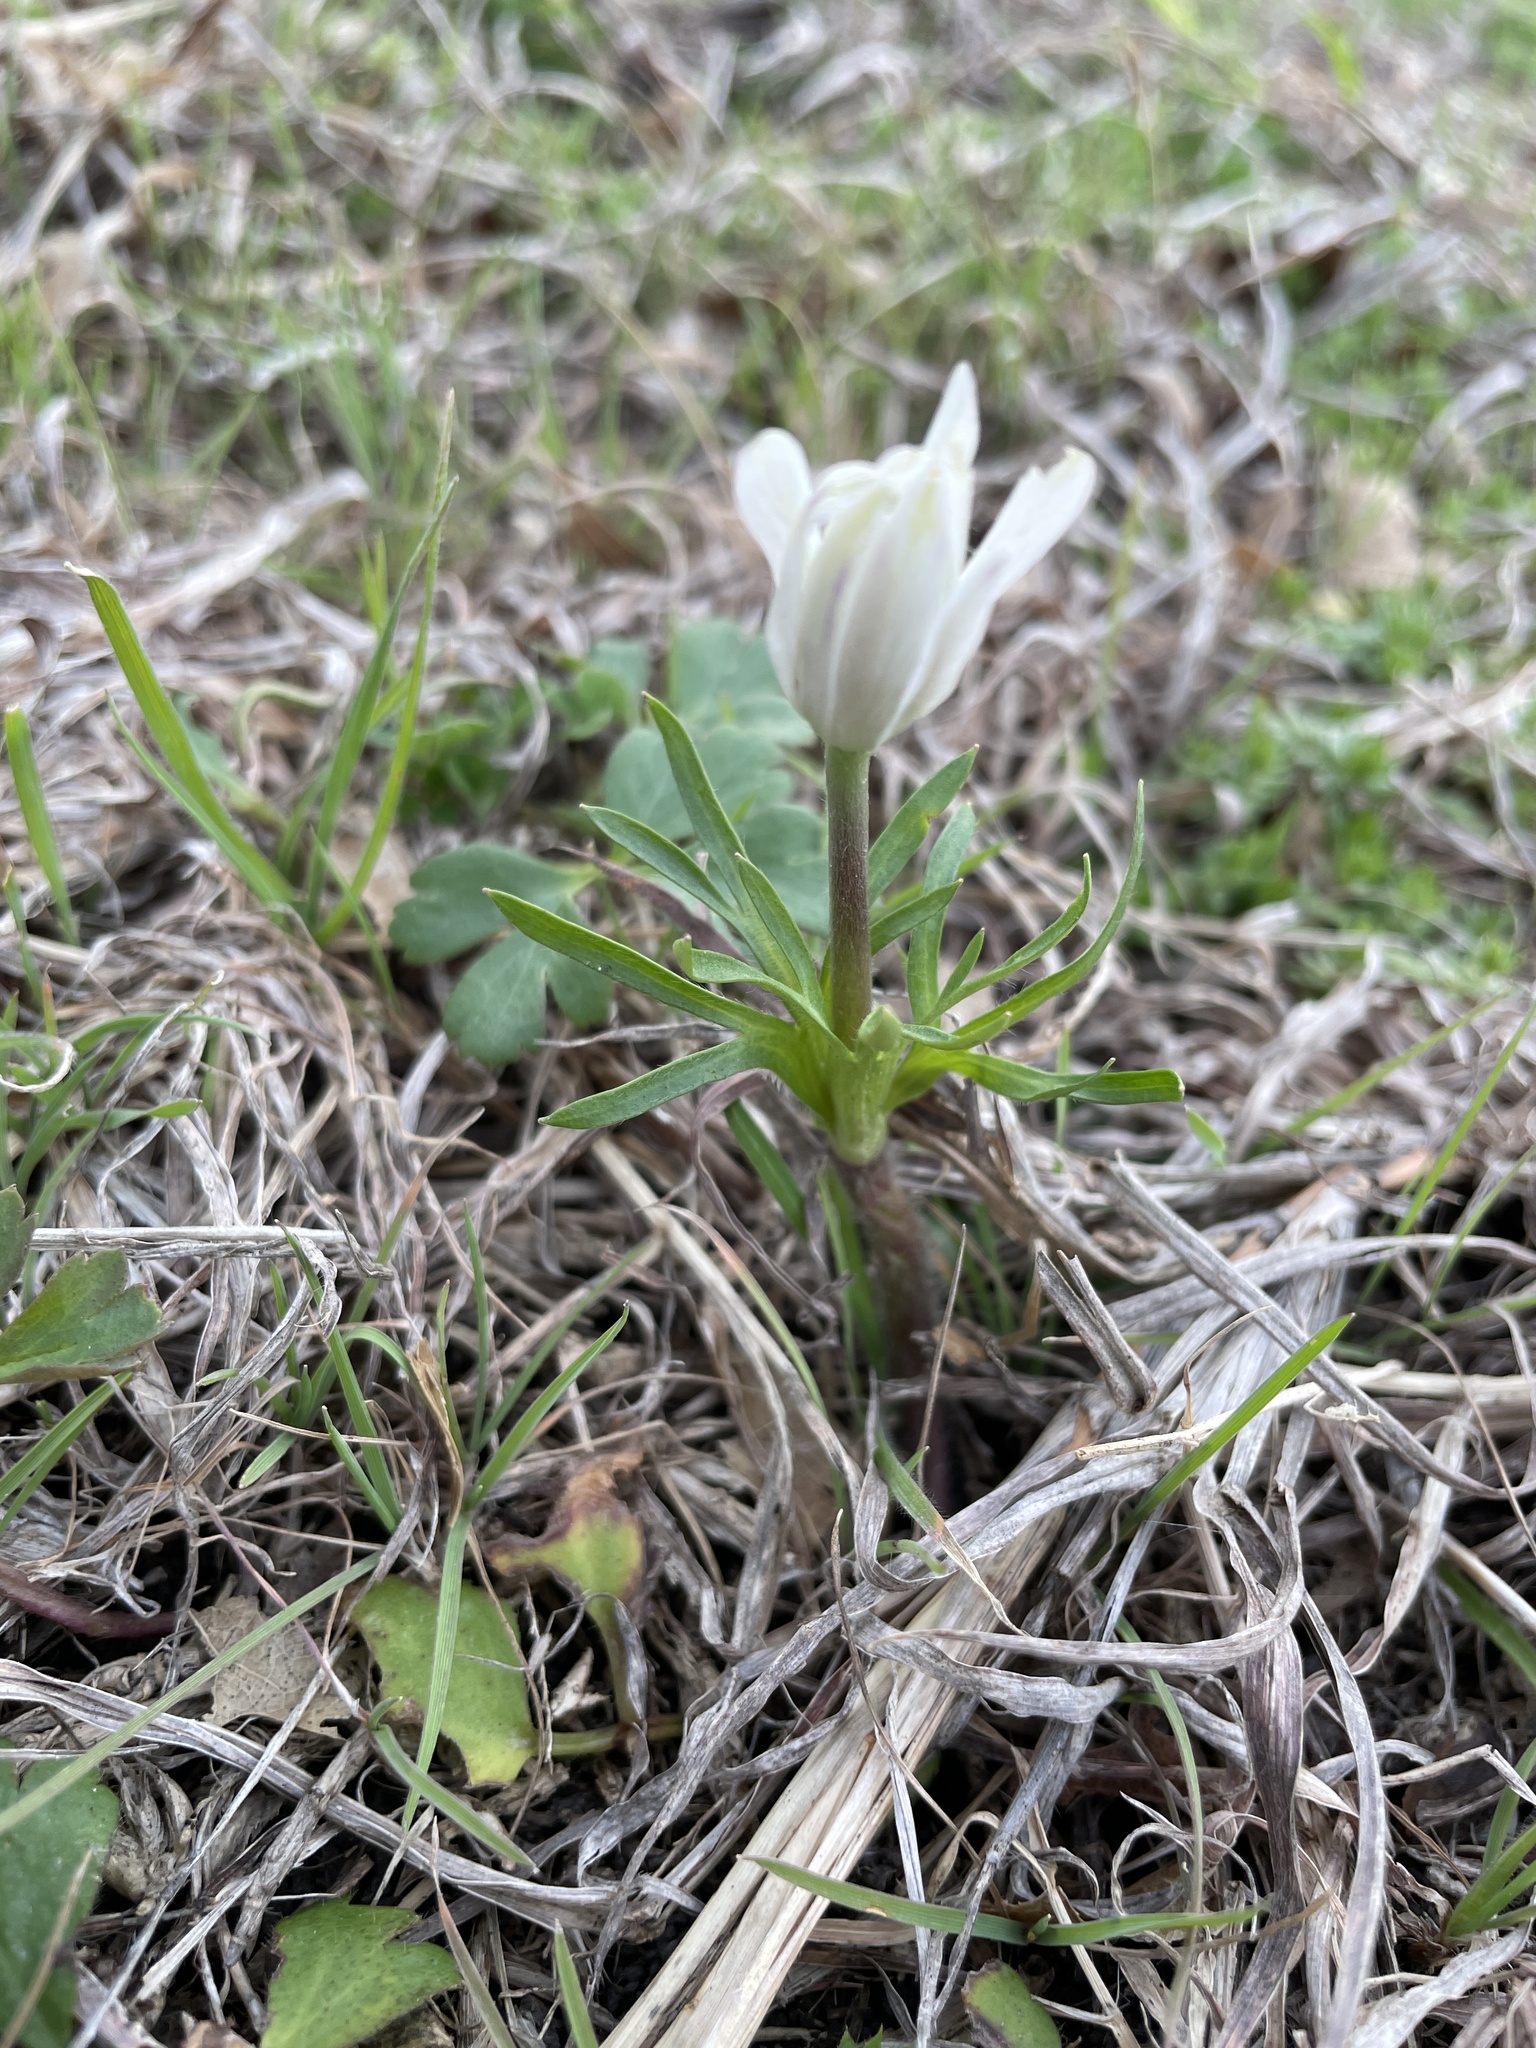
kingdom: Plantae
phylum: Tracheophyta
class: Magnoliopsida
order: Ranunculales
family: Ranunculaceae
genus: Anemone
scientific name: Anemone berlandieri
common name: Ten-petal anemone
